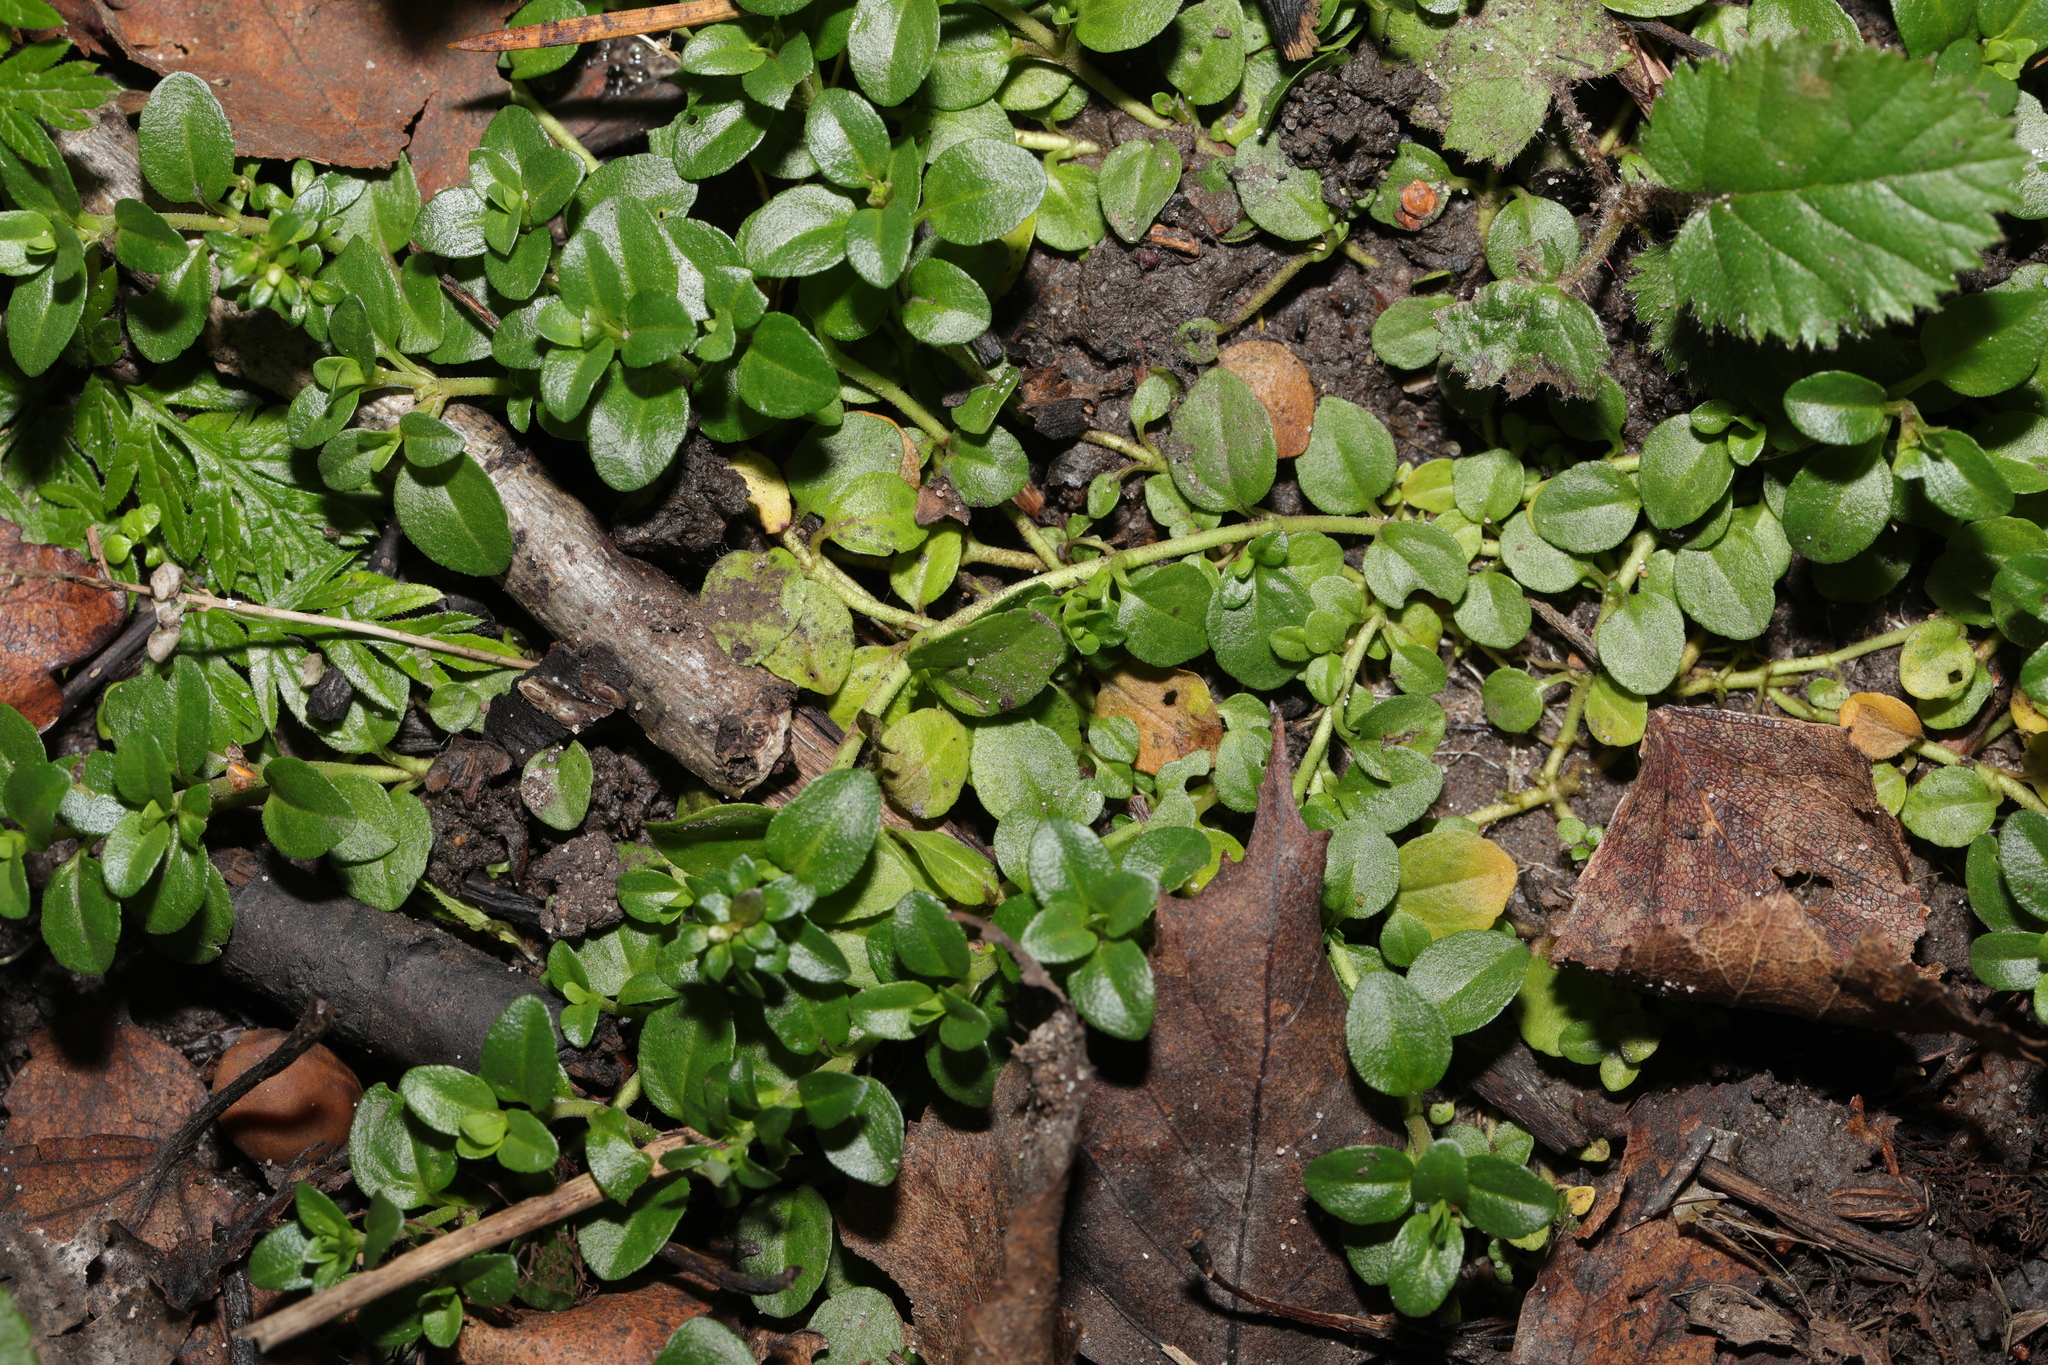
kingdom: Plantae
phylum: Tracheophyta
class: Magnoliopsida
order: Lamiales
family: Plantaginaceae
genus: Veronica
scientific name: Veronica serpyllifolia
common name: Thyme-leaved speedwell
